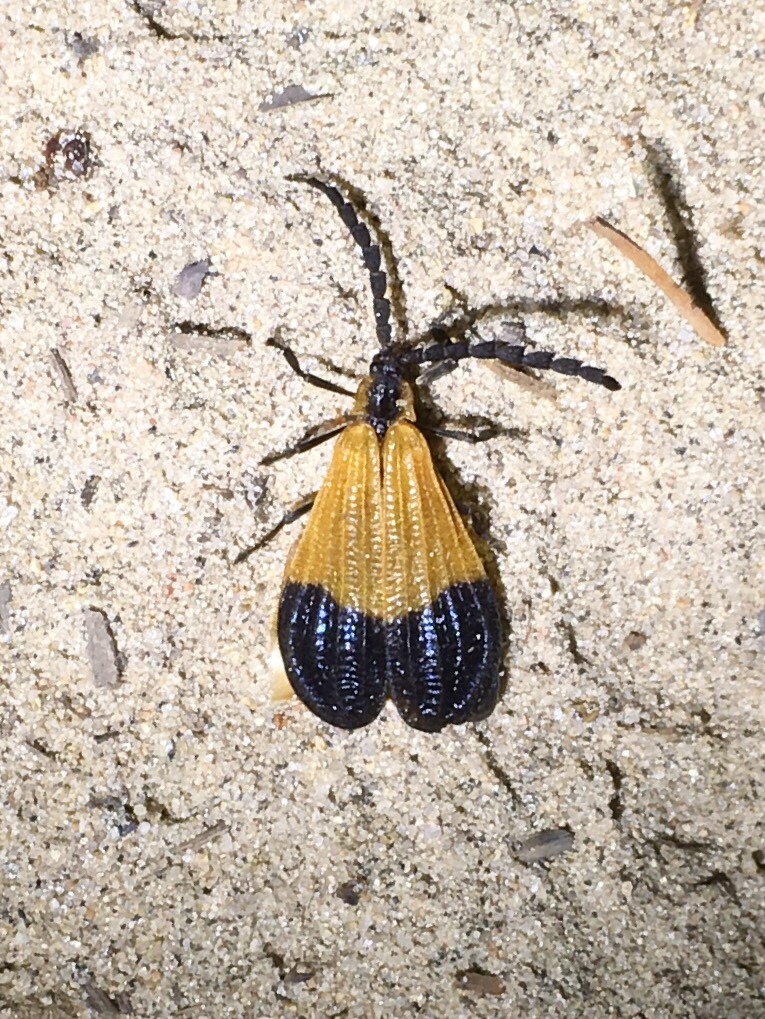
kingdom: Animalia
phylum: Arthropoda
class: Insecta
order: Coleoptera
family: Lycidae
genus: Calopteron
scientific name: Calopteron terminale
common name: End band net-winged beetle
